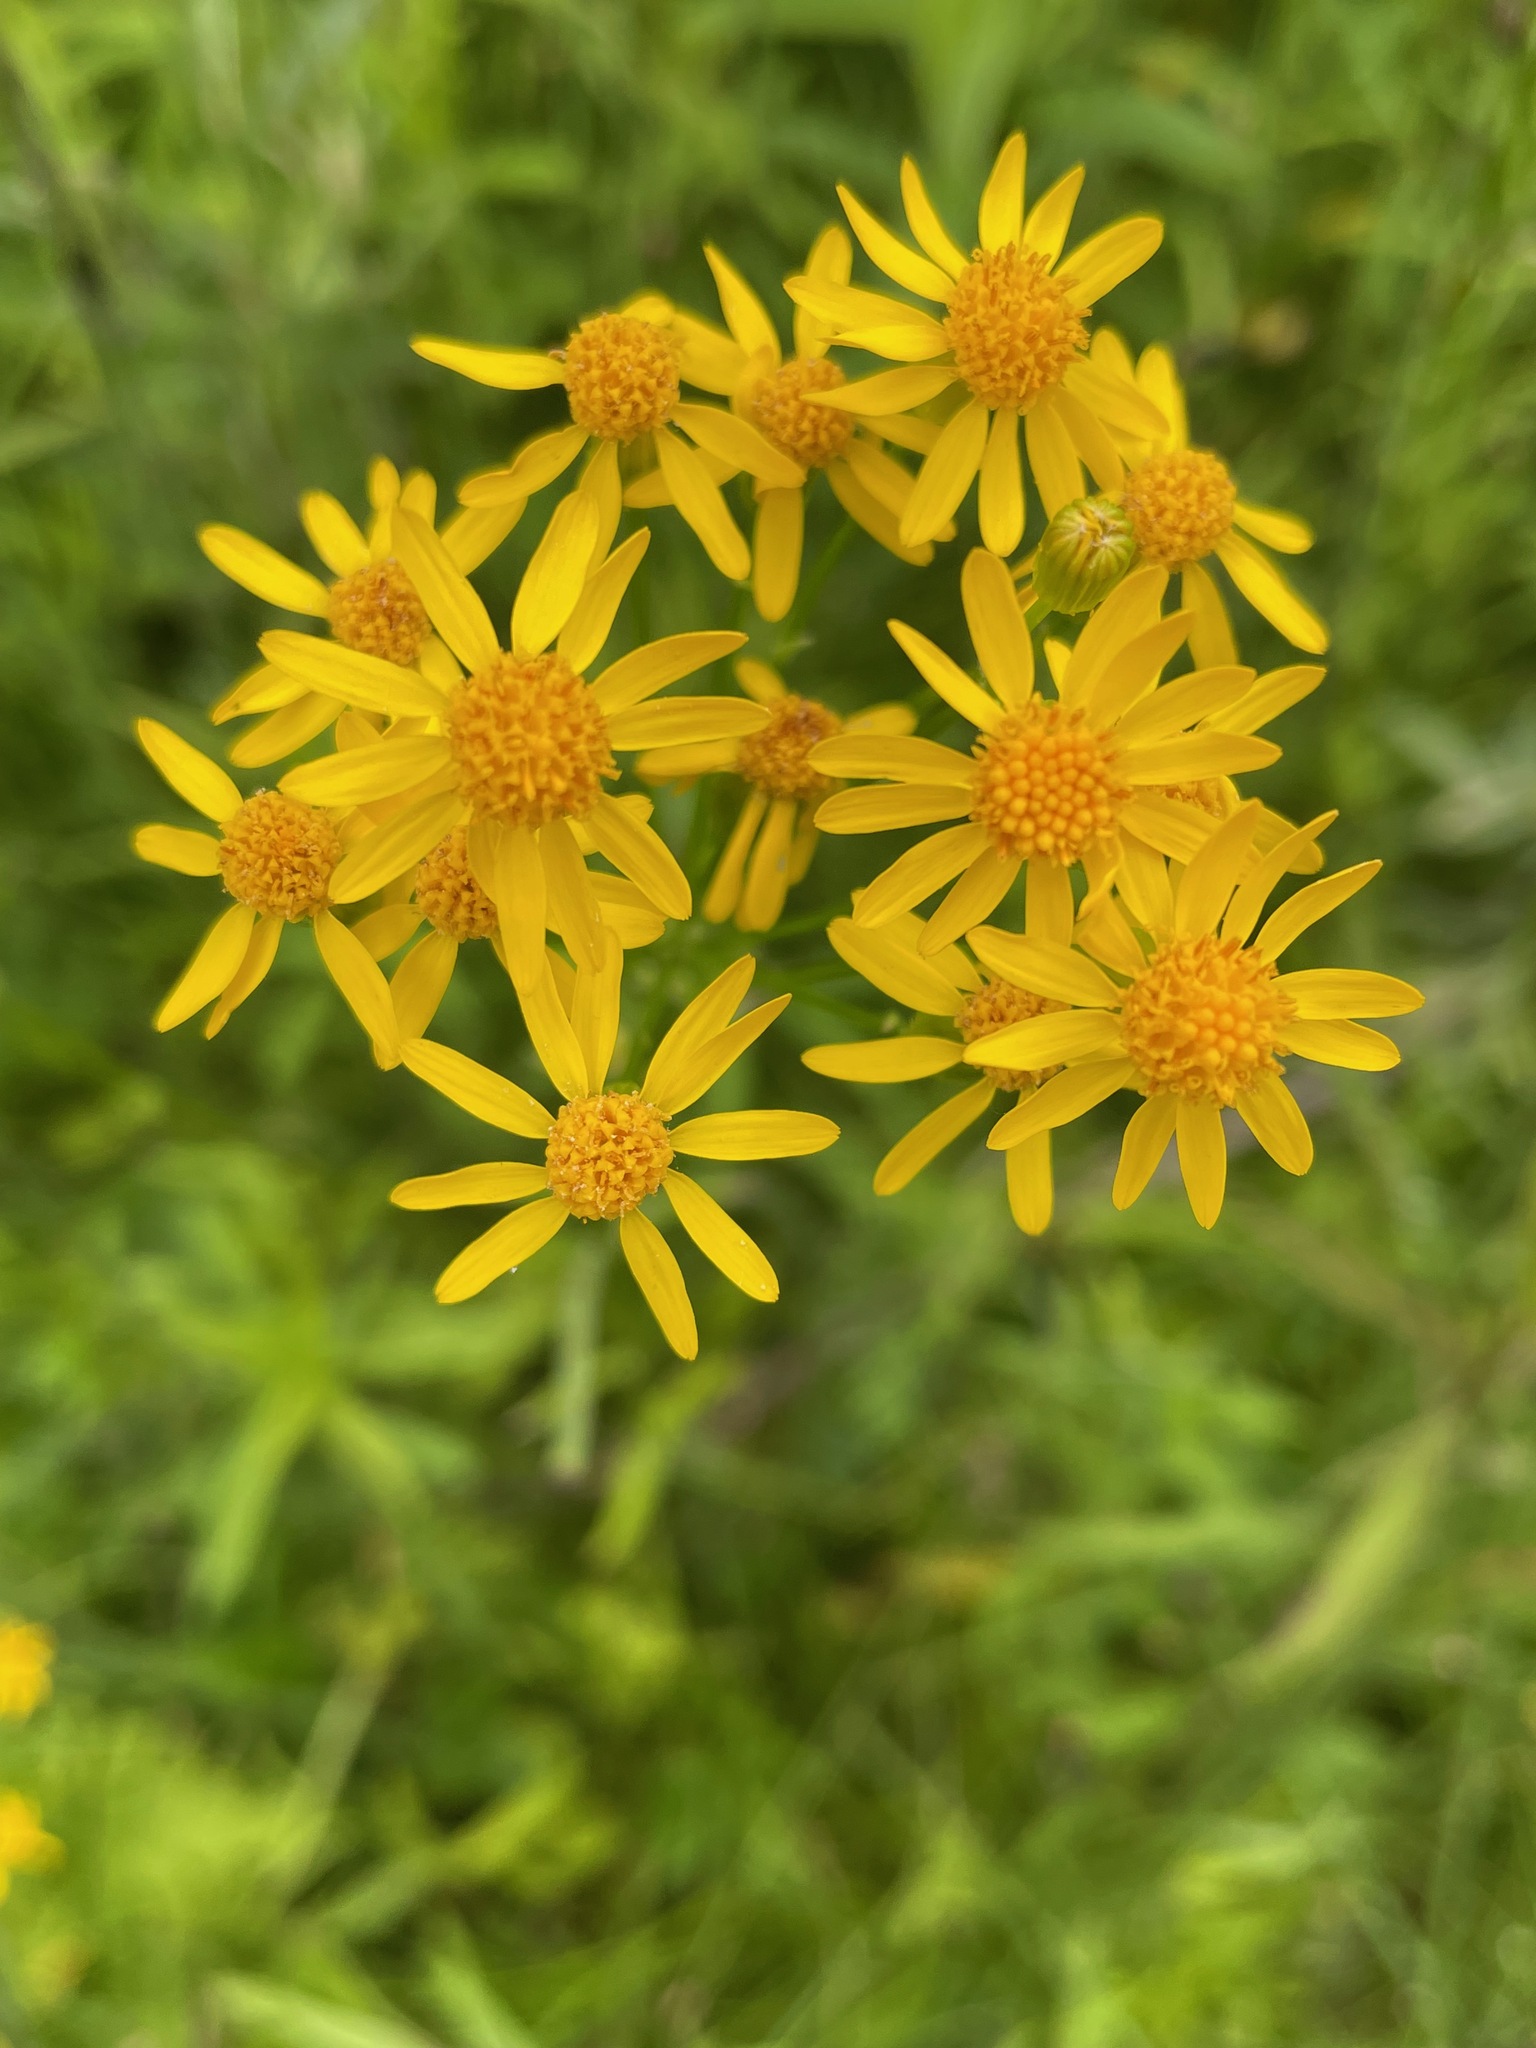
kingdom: Plantae
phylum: Tracheophyta
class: Magnoliopsida
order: Asterales
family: Asteraceae
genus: Packera
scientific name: Packera schweinitziana
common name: Schweinitz's ragwort
